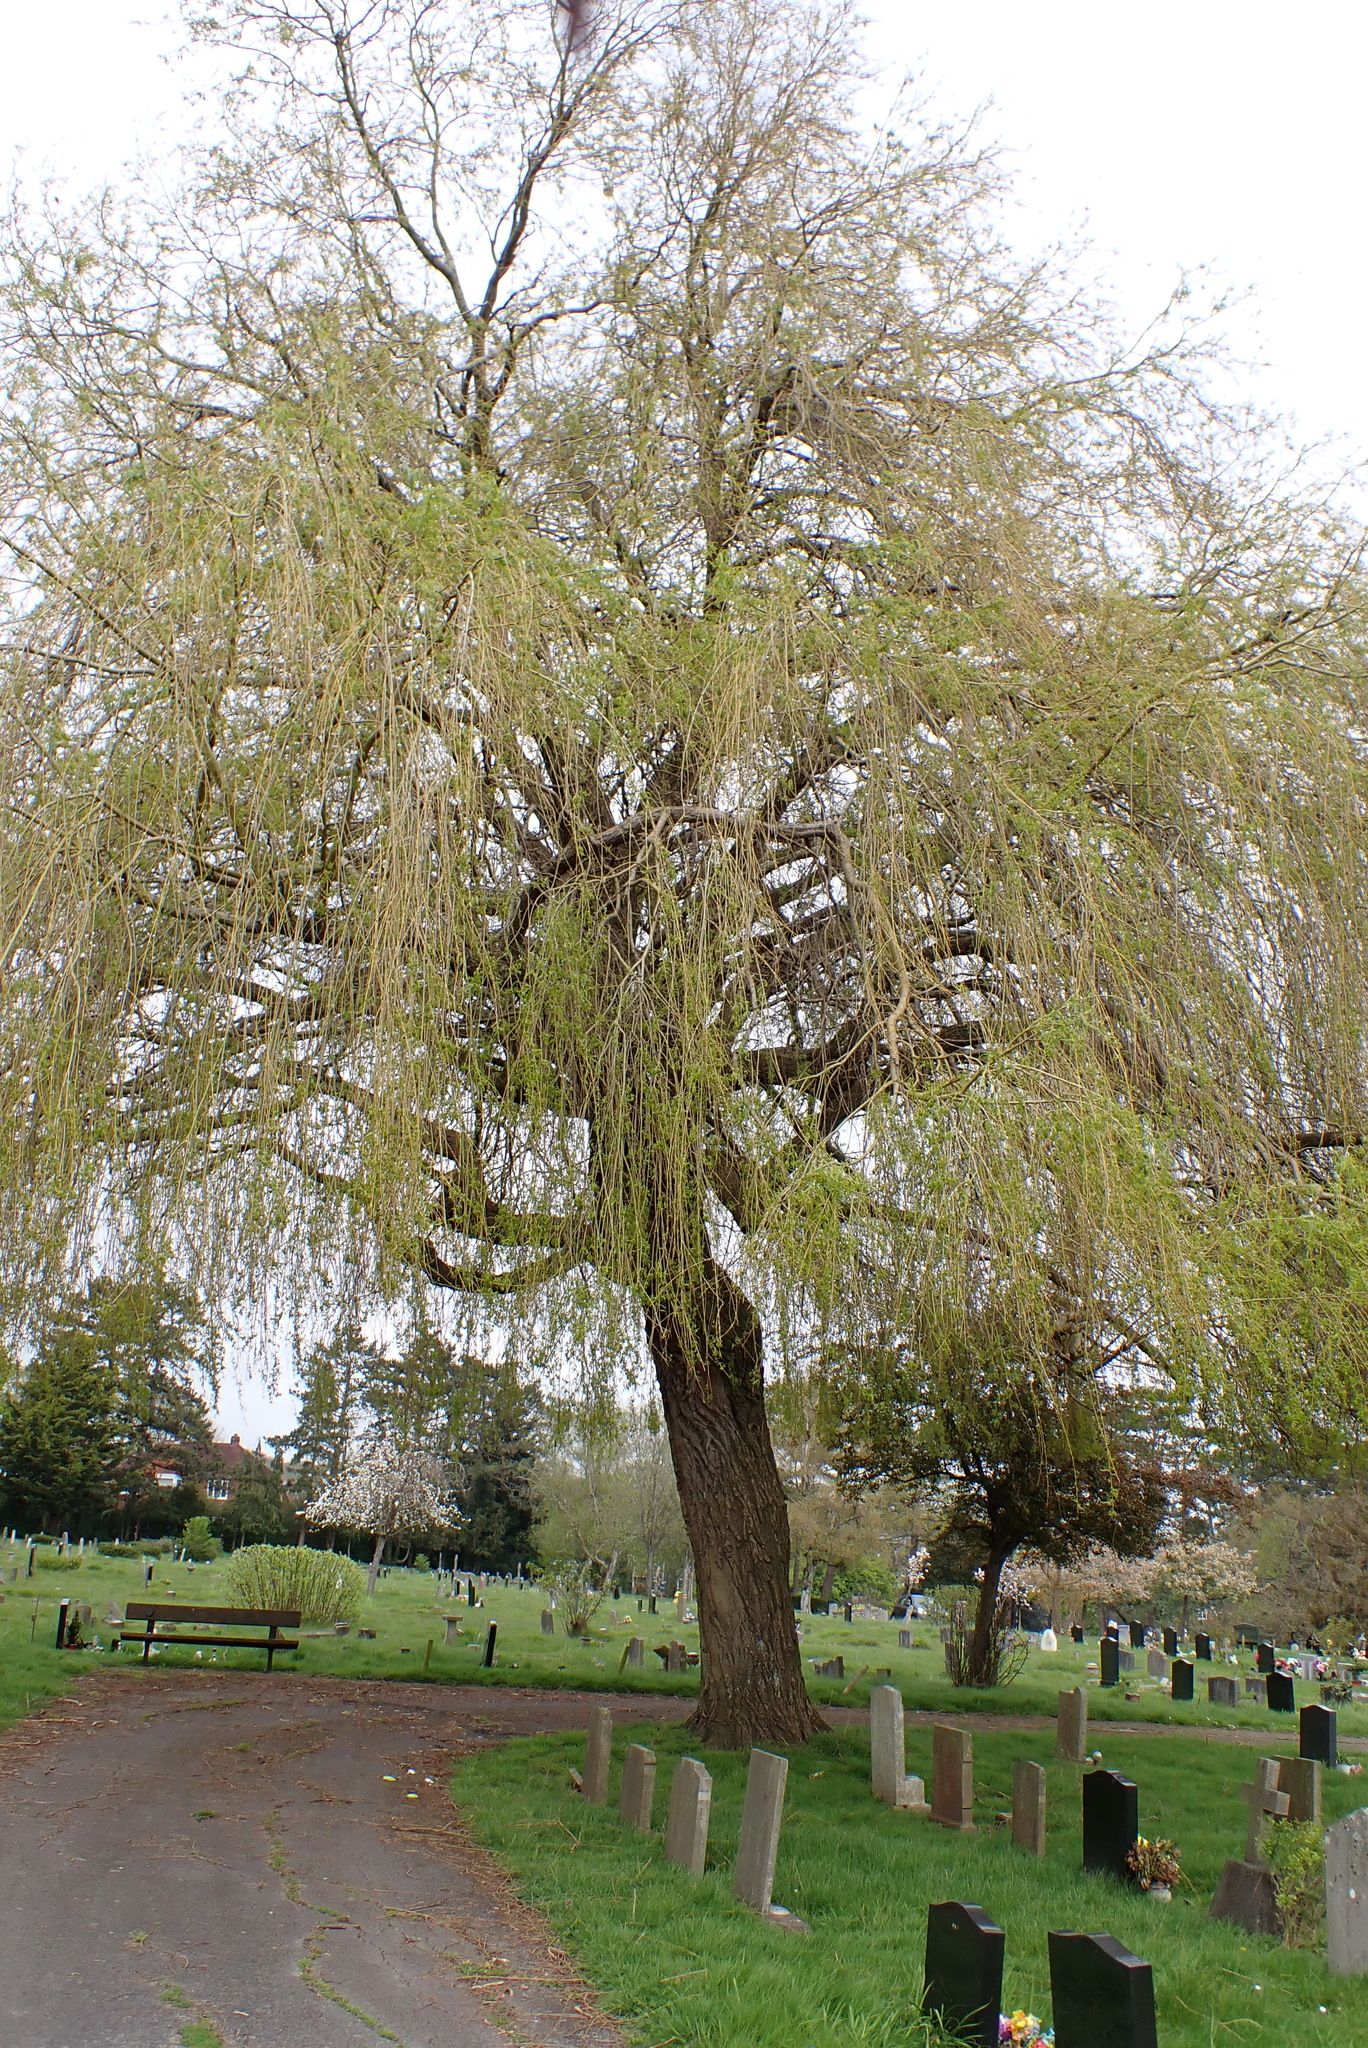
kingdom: Plantae
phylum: Tracheophyta
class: Magnoliopsida
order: Malpighiales
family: Salicaceae
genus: Salix
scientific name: Salix pendulina
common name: Wisconsin weeping willow
